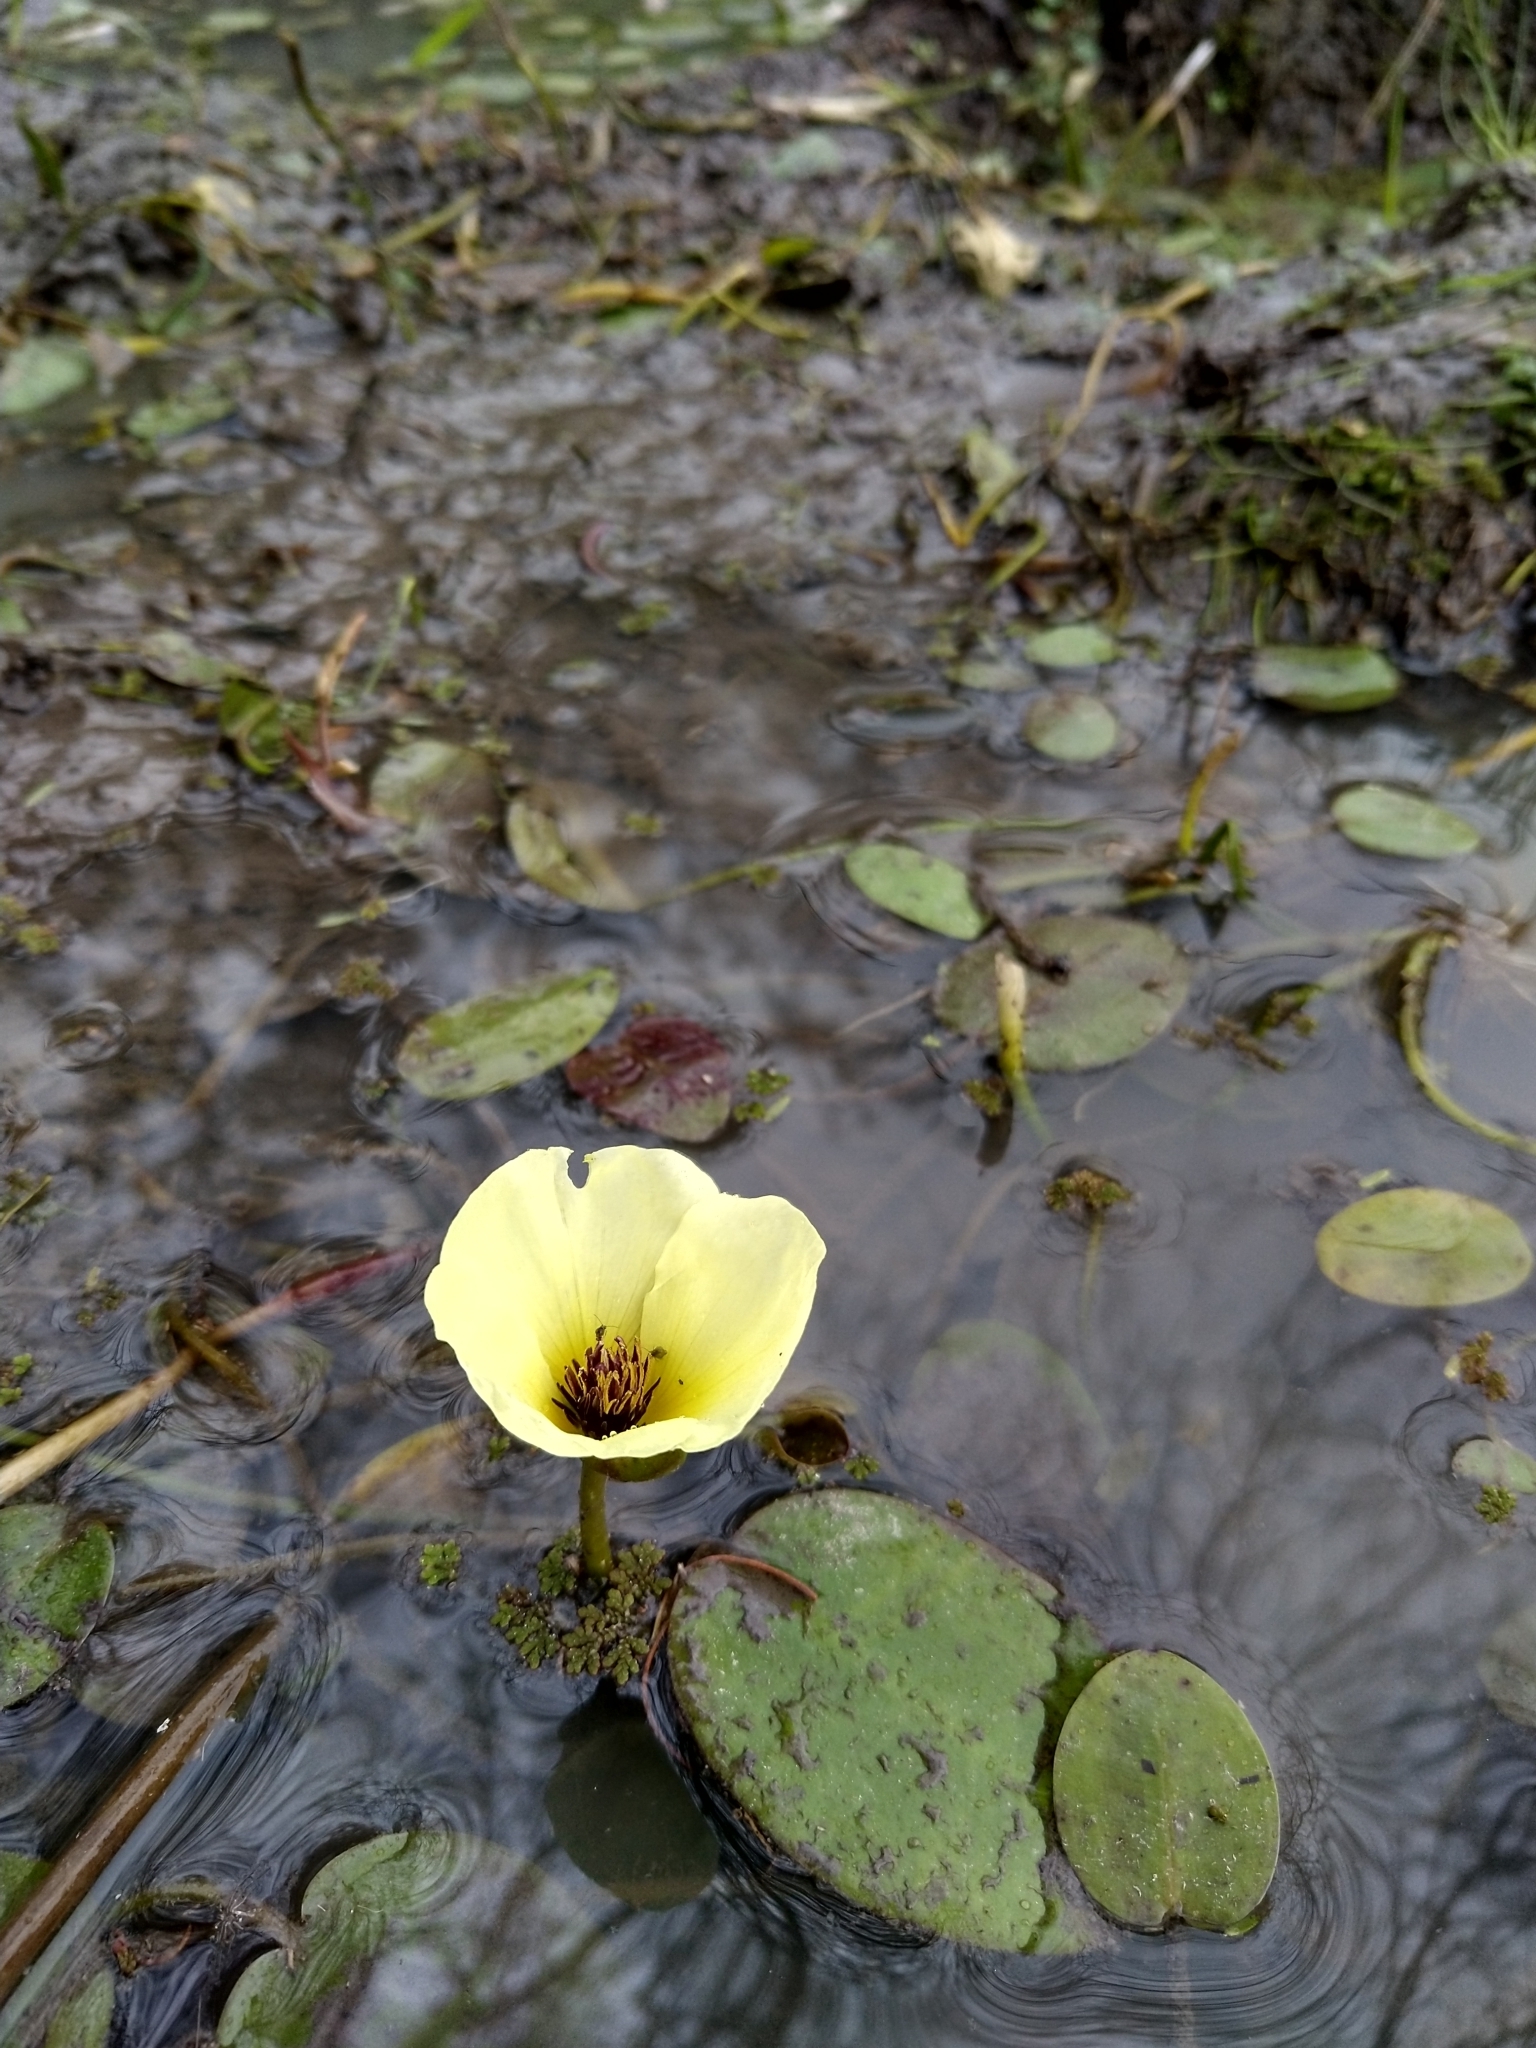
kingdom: Plantae
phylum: Tracheophyta
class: Liliopsida
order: Alismatales
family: Alismataceae
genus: Hydrocleys
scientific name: Hydrocleys nymphoides
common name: Water-poppy
